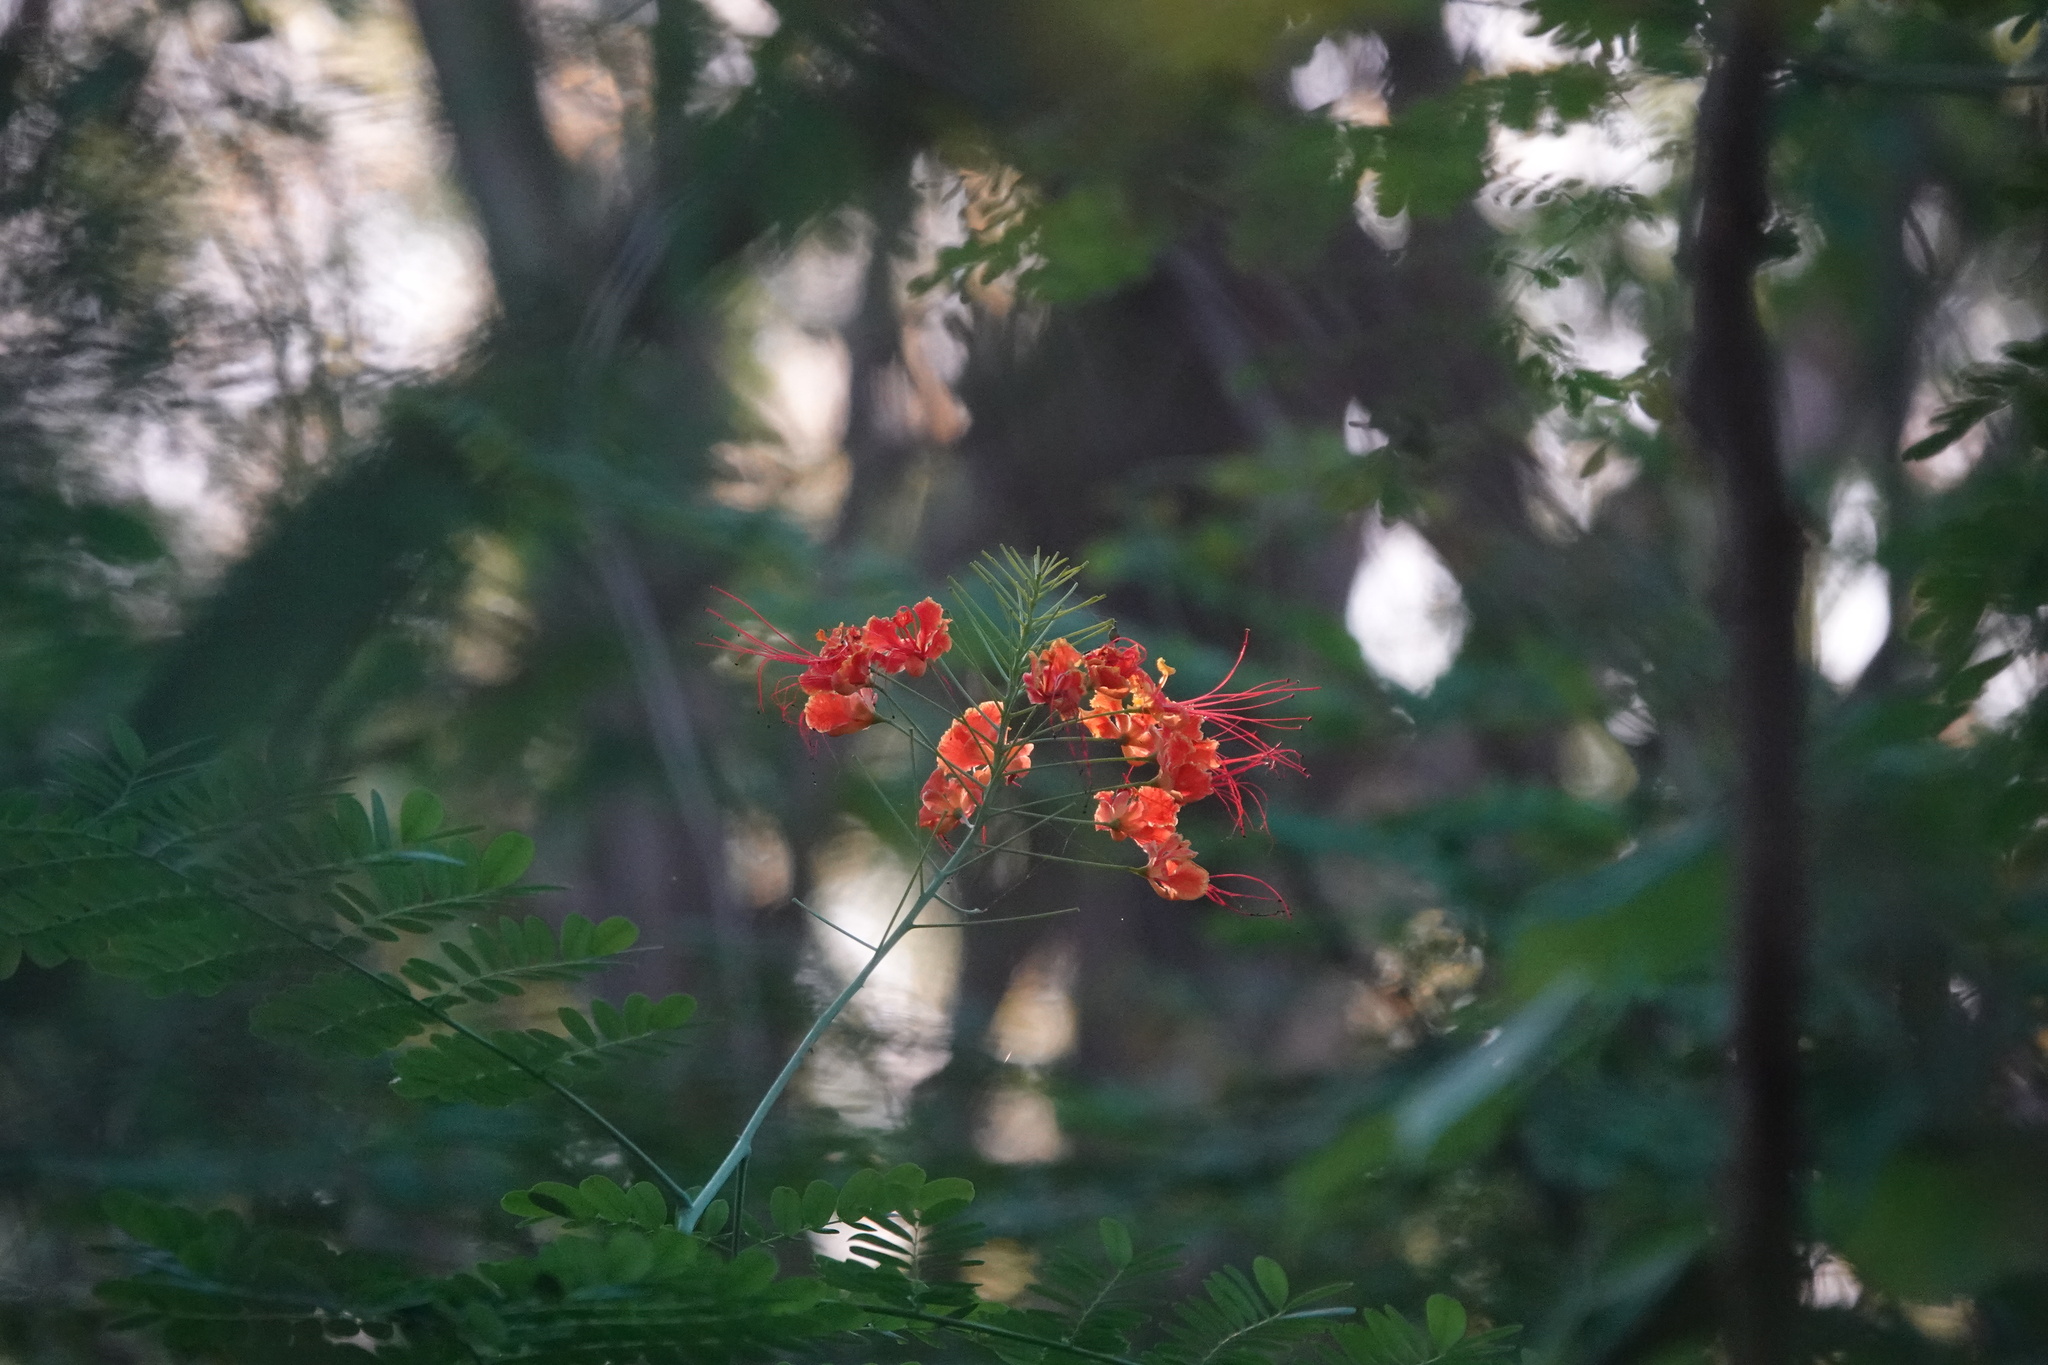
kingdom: Plantae
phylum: Tracheophyta
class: Magnoliopsida
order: Fabales
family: Fabaceae
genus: Caesalpinia
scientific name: Caesalpinia pulcherrima
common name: Pride-of-barbados
